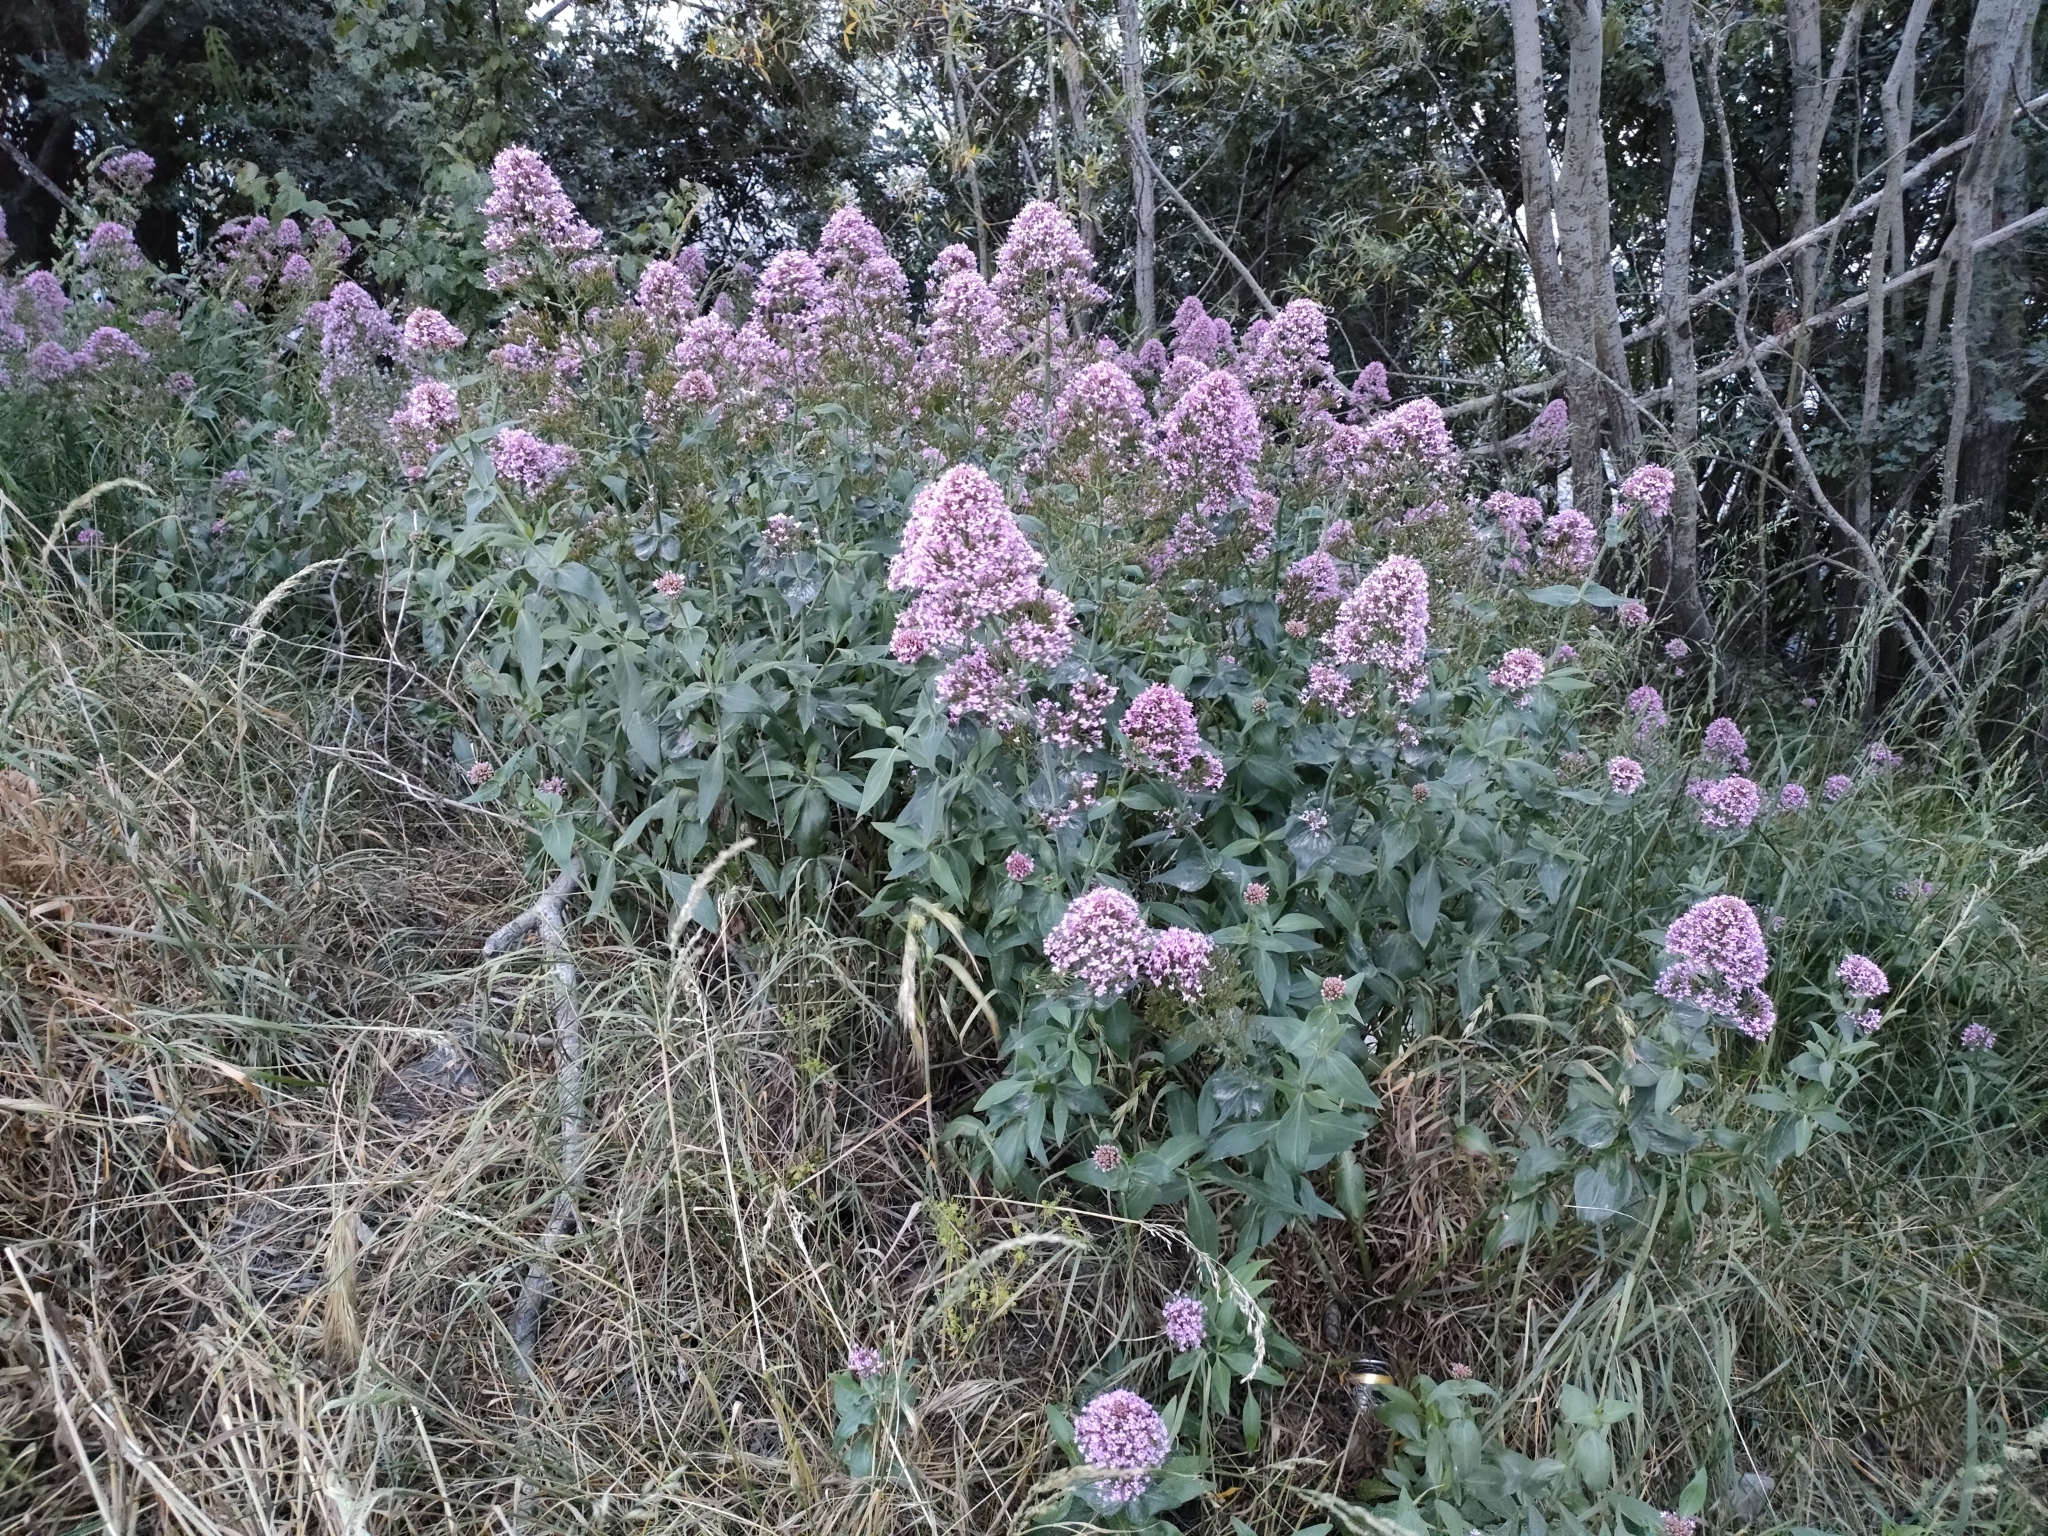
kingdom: Plantae
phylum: Tracheophyta
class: Magnoliopsida
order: Dipsacales
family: Caprifoliaceae
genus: Centranthus
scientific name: Centranthus ruber
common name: Red valerian
